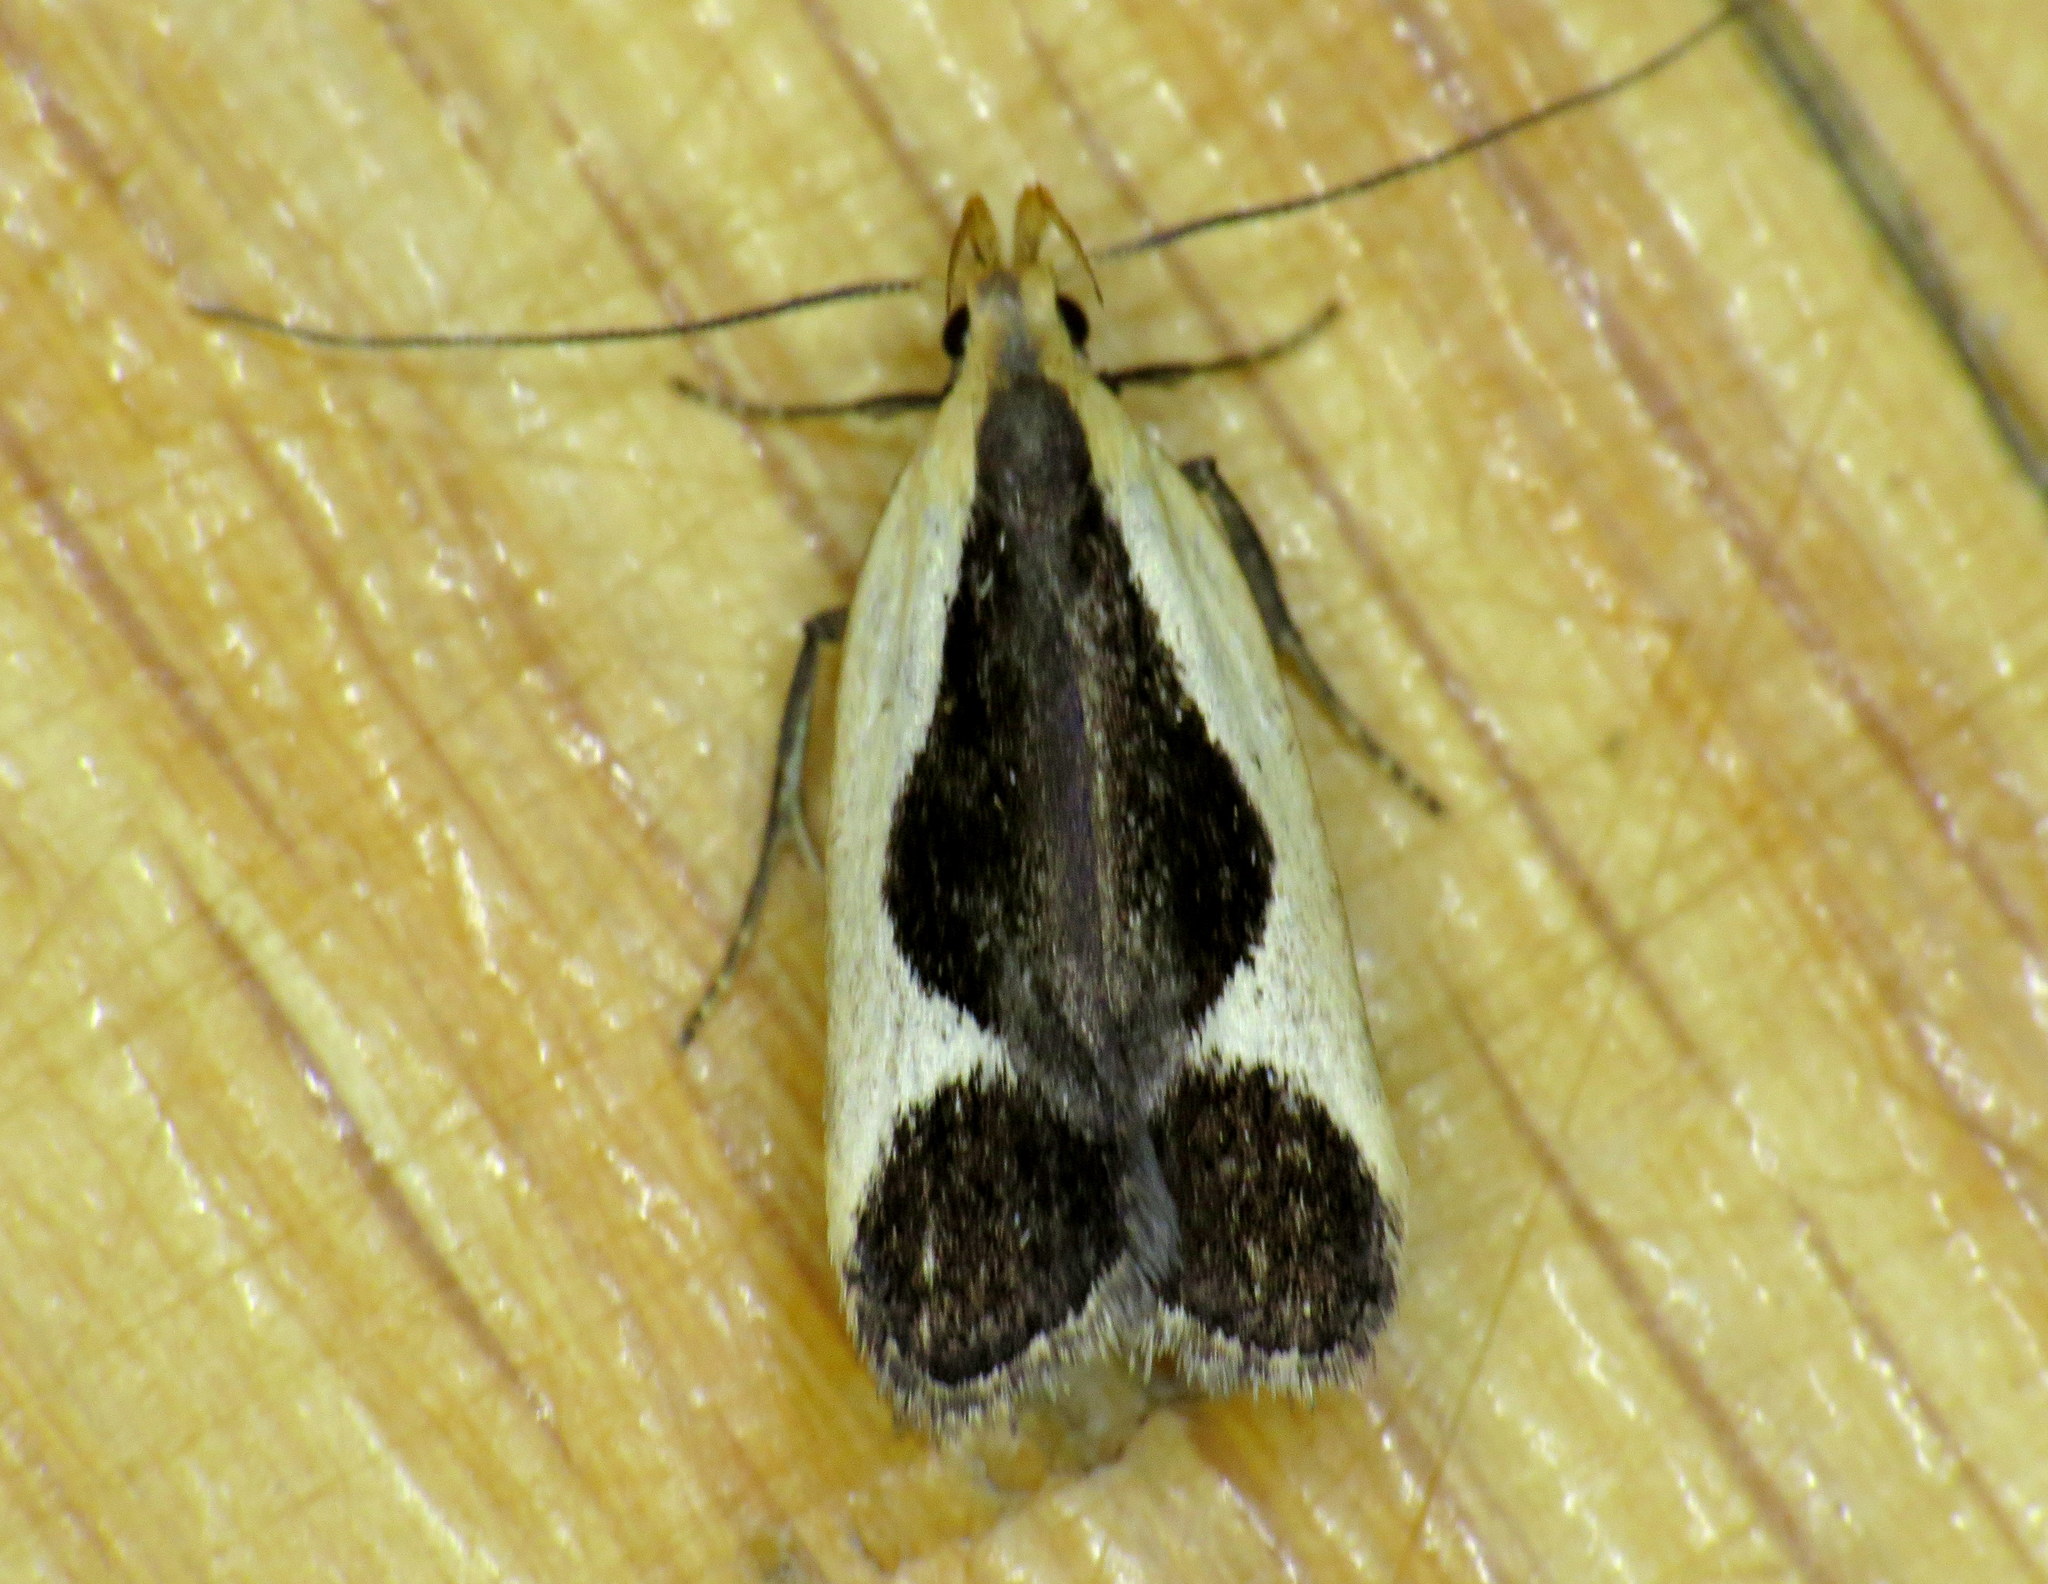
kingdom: Animalia
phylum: Arthropoda
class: Insecta
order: Lepidoptera
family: Gelechiidae
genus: Dichomeris
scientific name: Dichomeris flavocostella
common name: Cream-edged dichomeris moth
